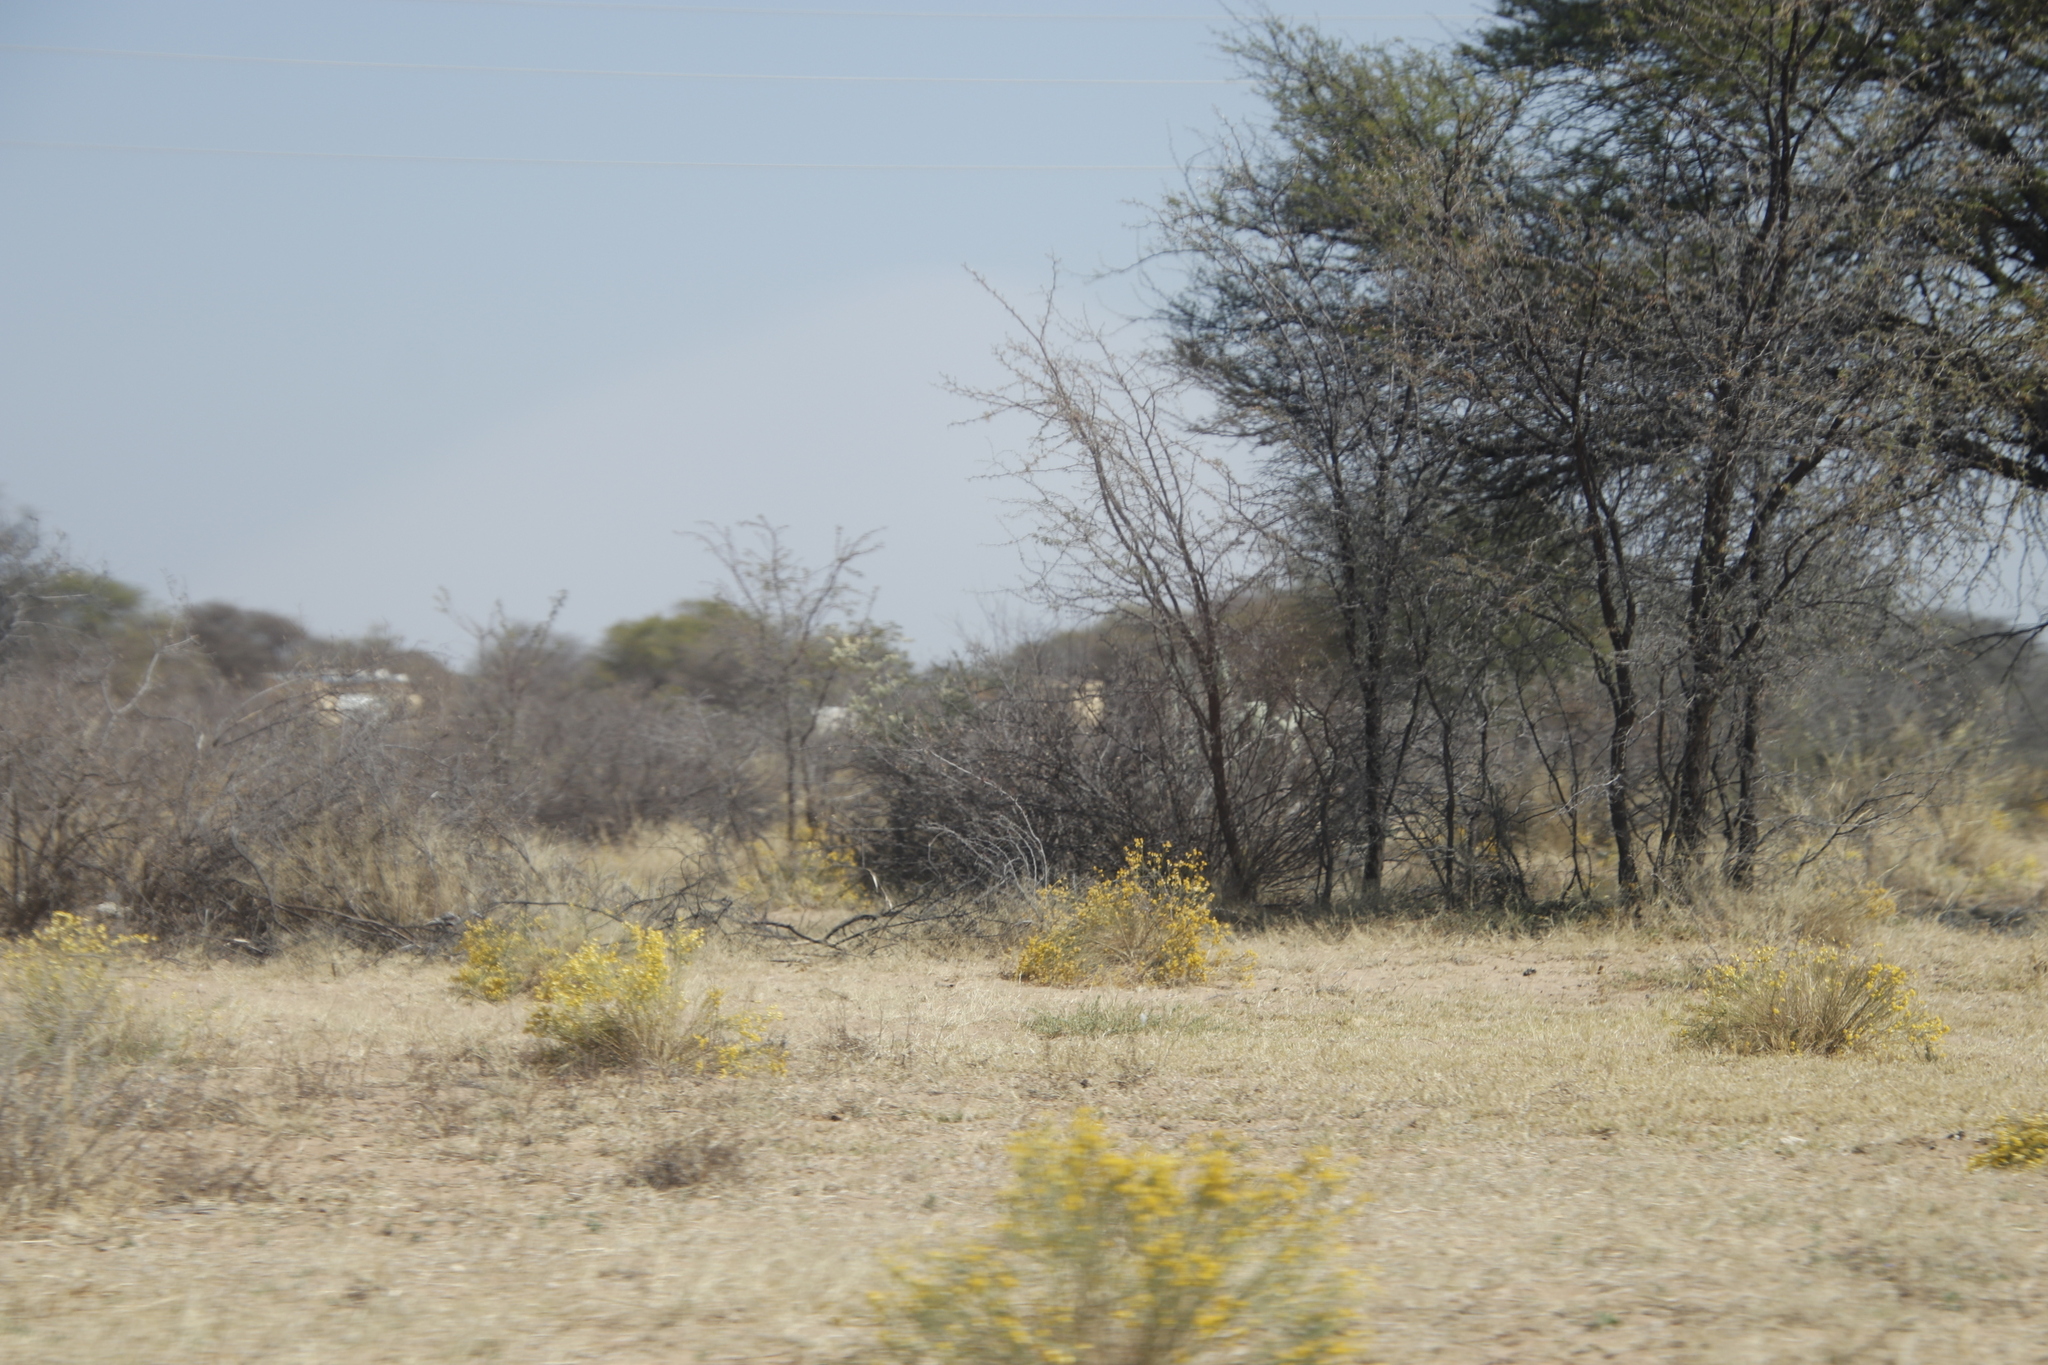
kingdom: Plantae
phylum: Tracheophyta
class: Magnoliopsida
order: Malvales
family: Thymelaeaceae
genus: Gnidia
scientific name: Gnidia polycephala
